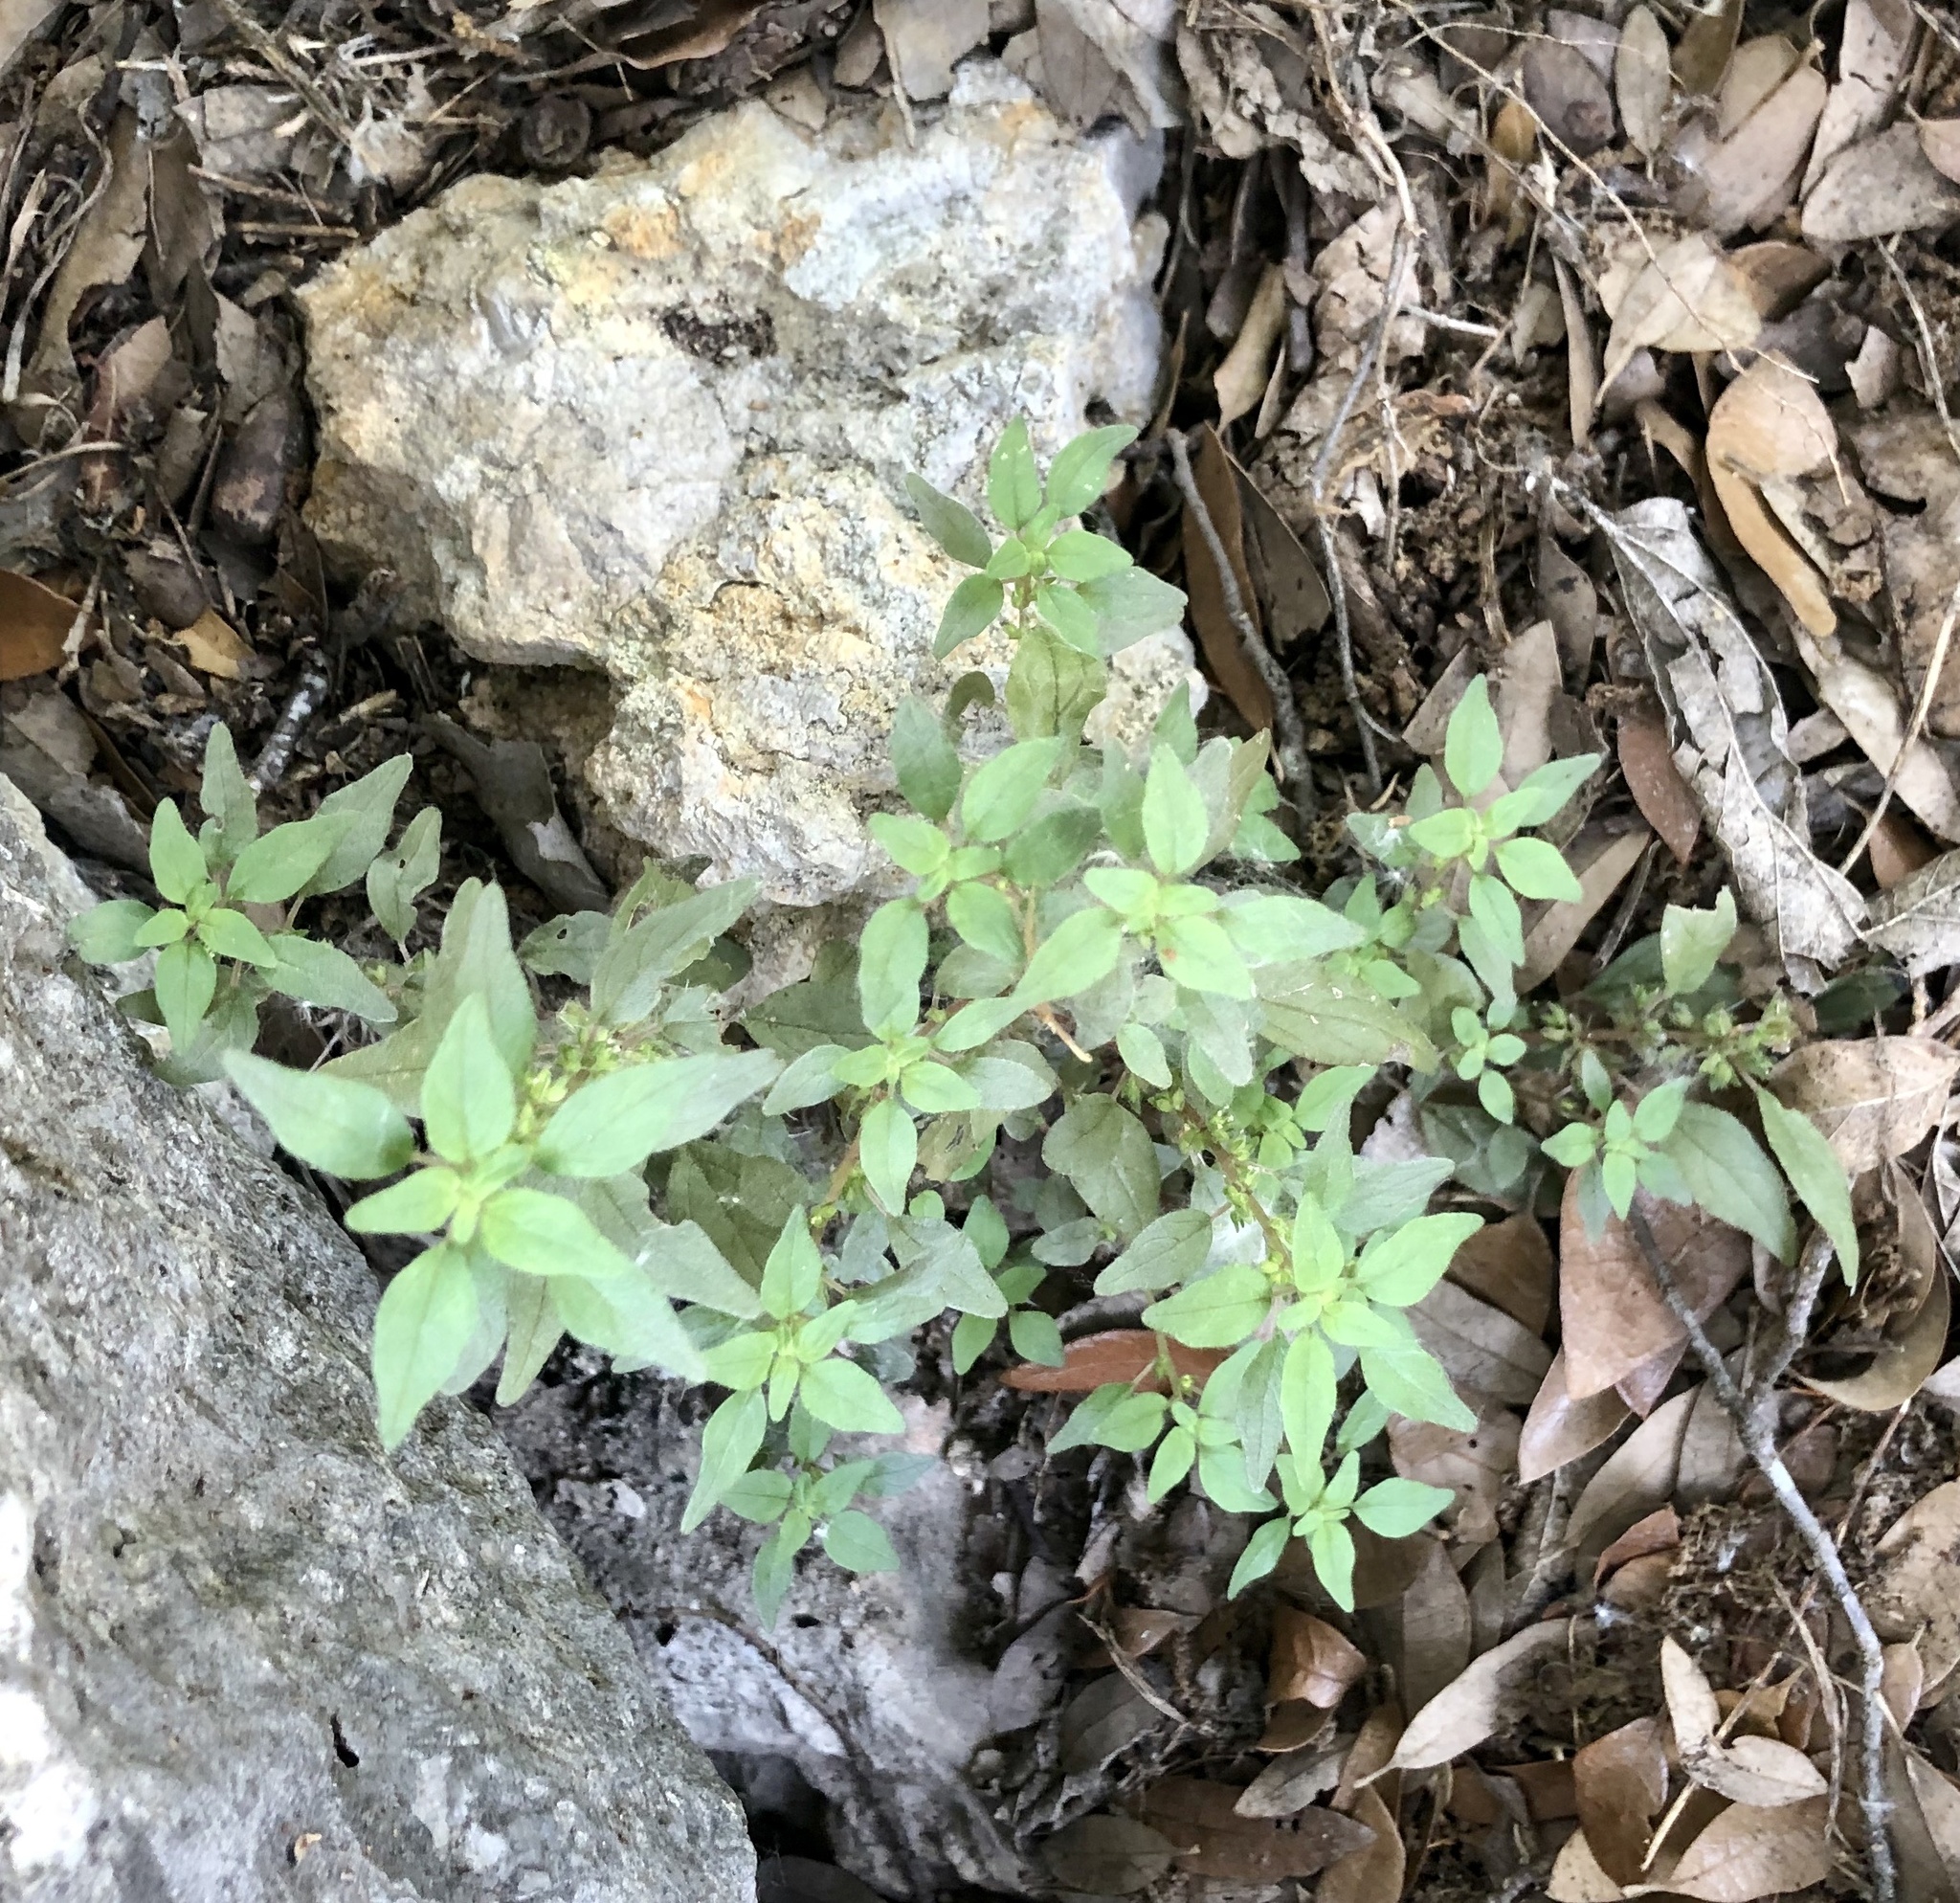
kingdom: Plantae
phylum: Tracheophyta
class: Magnoliopsida
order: Rosales
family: Urticaceae
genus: Parietaria
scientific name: Parietaria pensylvanica
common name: Pennsylvania pellitory
